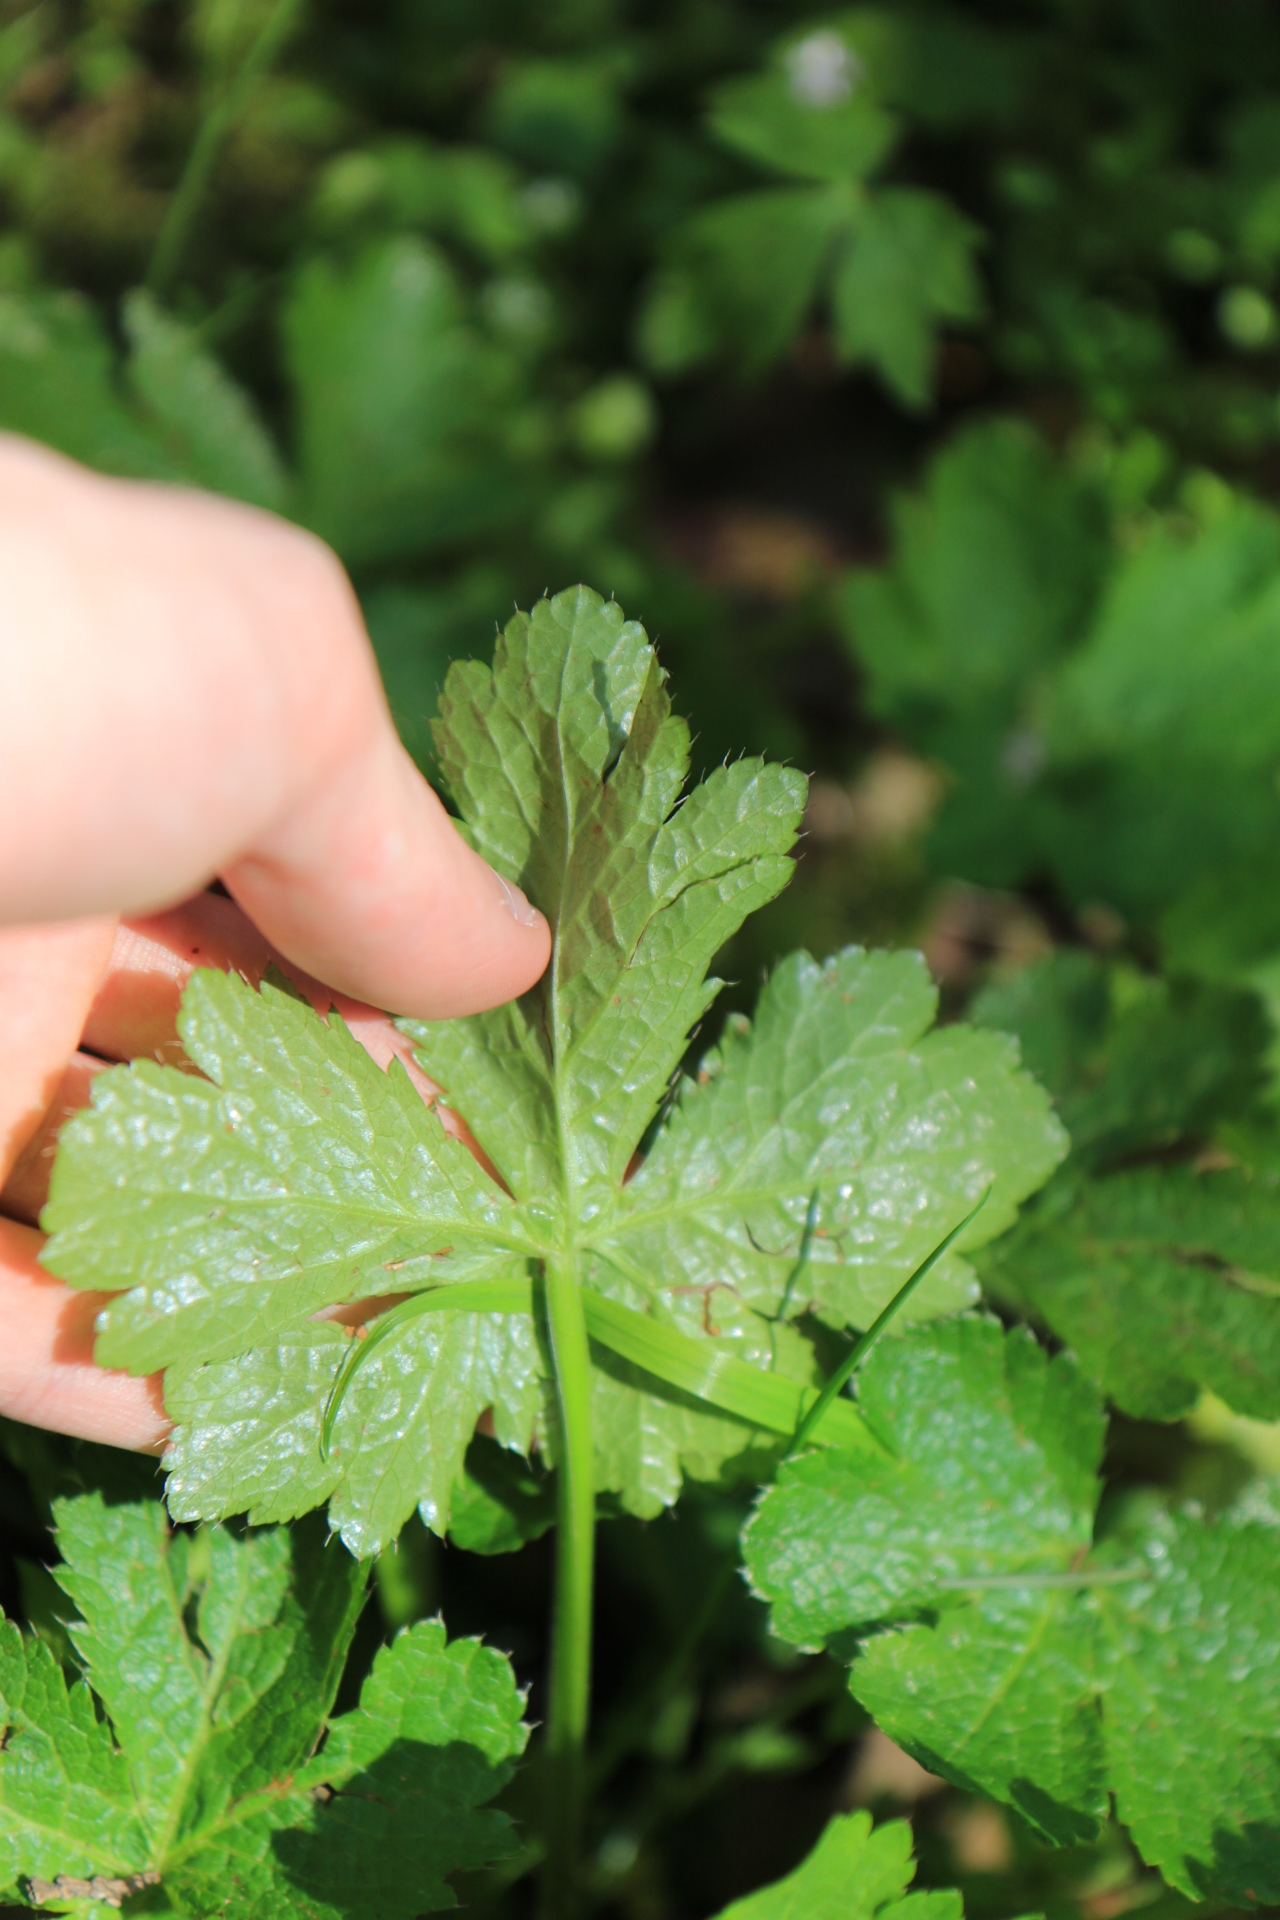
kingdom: Plantae
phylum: Tracheophyta
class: Magnoliopsida
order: Apiales
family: Apiaceae
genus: Sanicula
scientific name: Sanicula crassicaulis
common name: Western snakeroot
